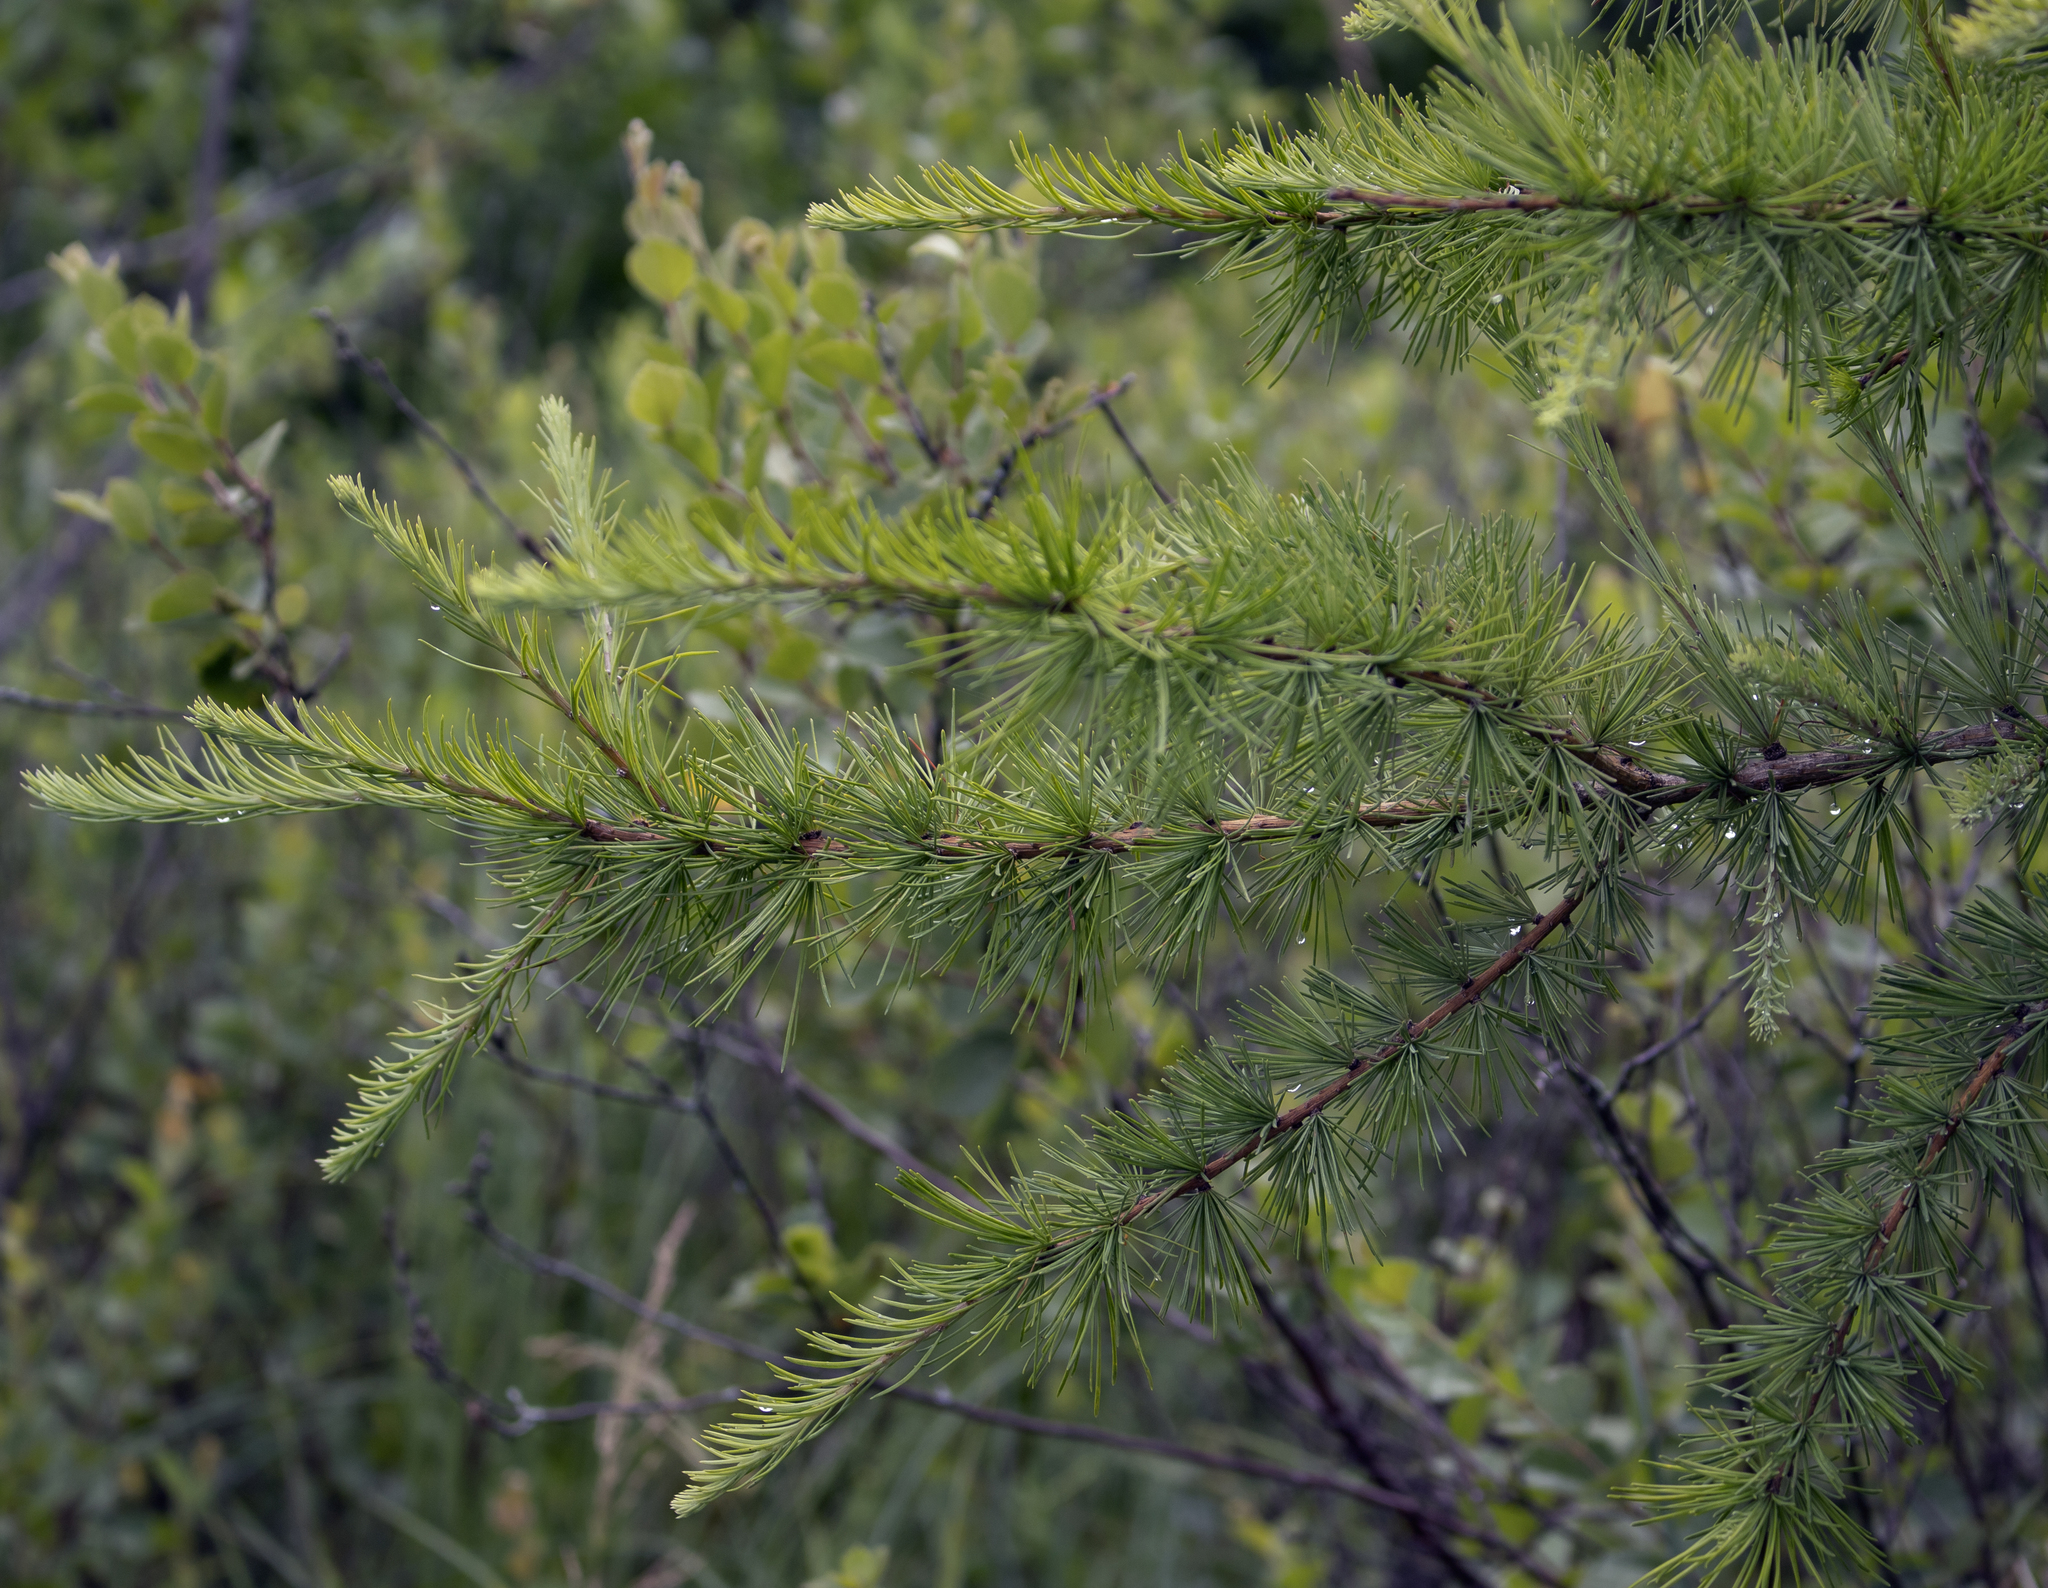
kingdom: Plantae
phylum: Tracheophyta
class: Pinopsida
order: Pinales
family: Pinaceae
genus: Larix
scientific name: Larix laricina
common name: American larch
